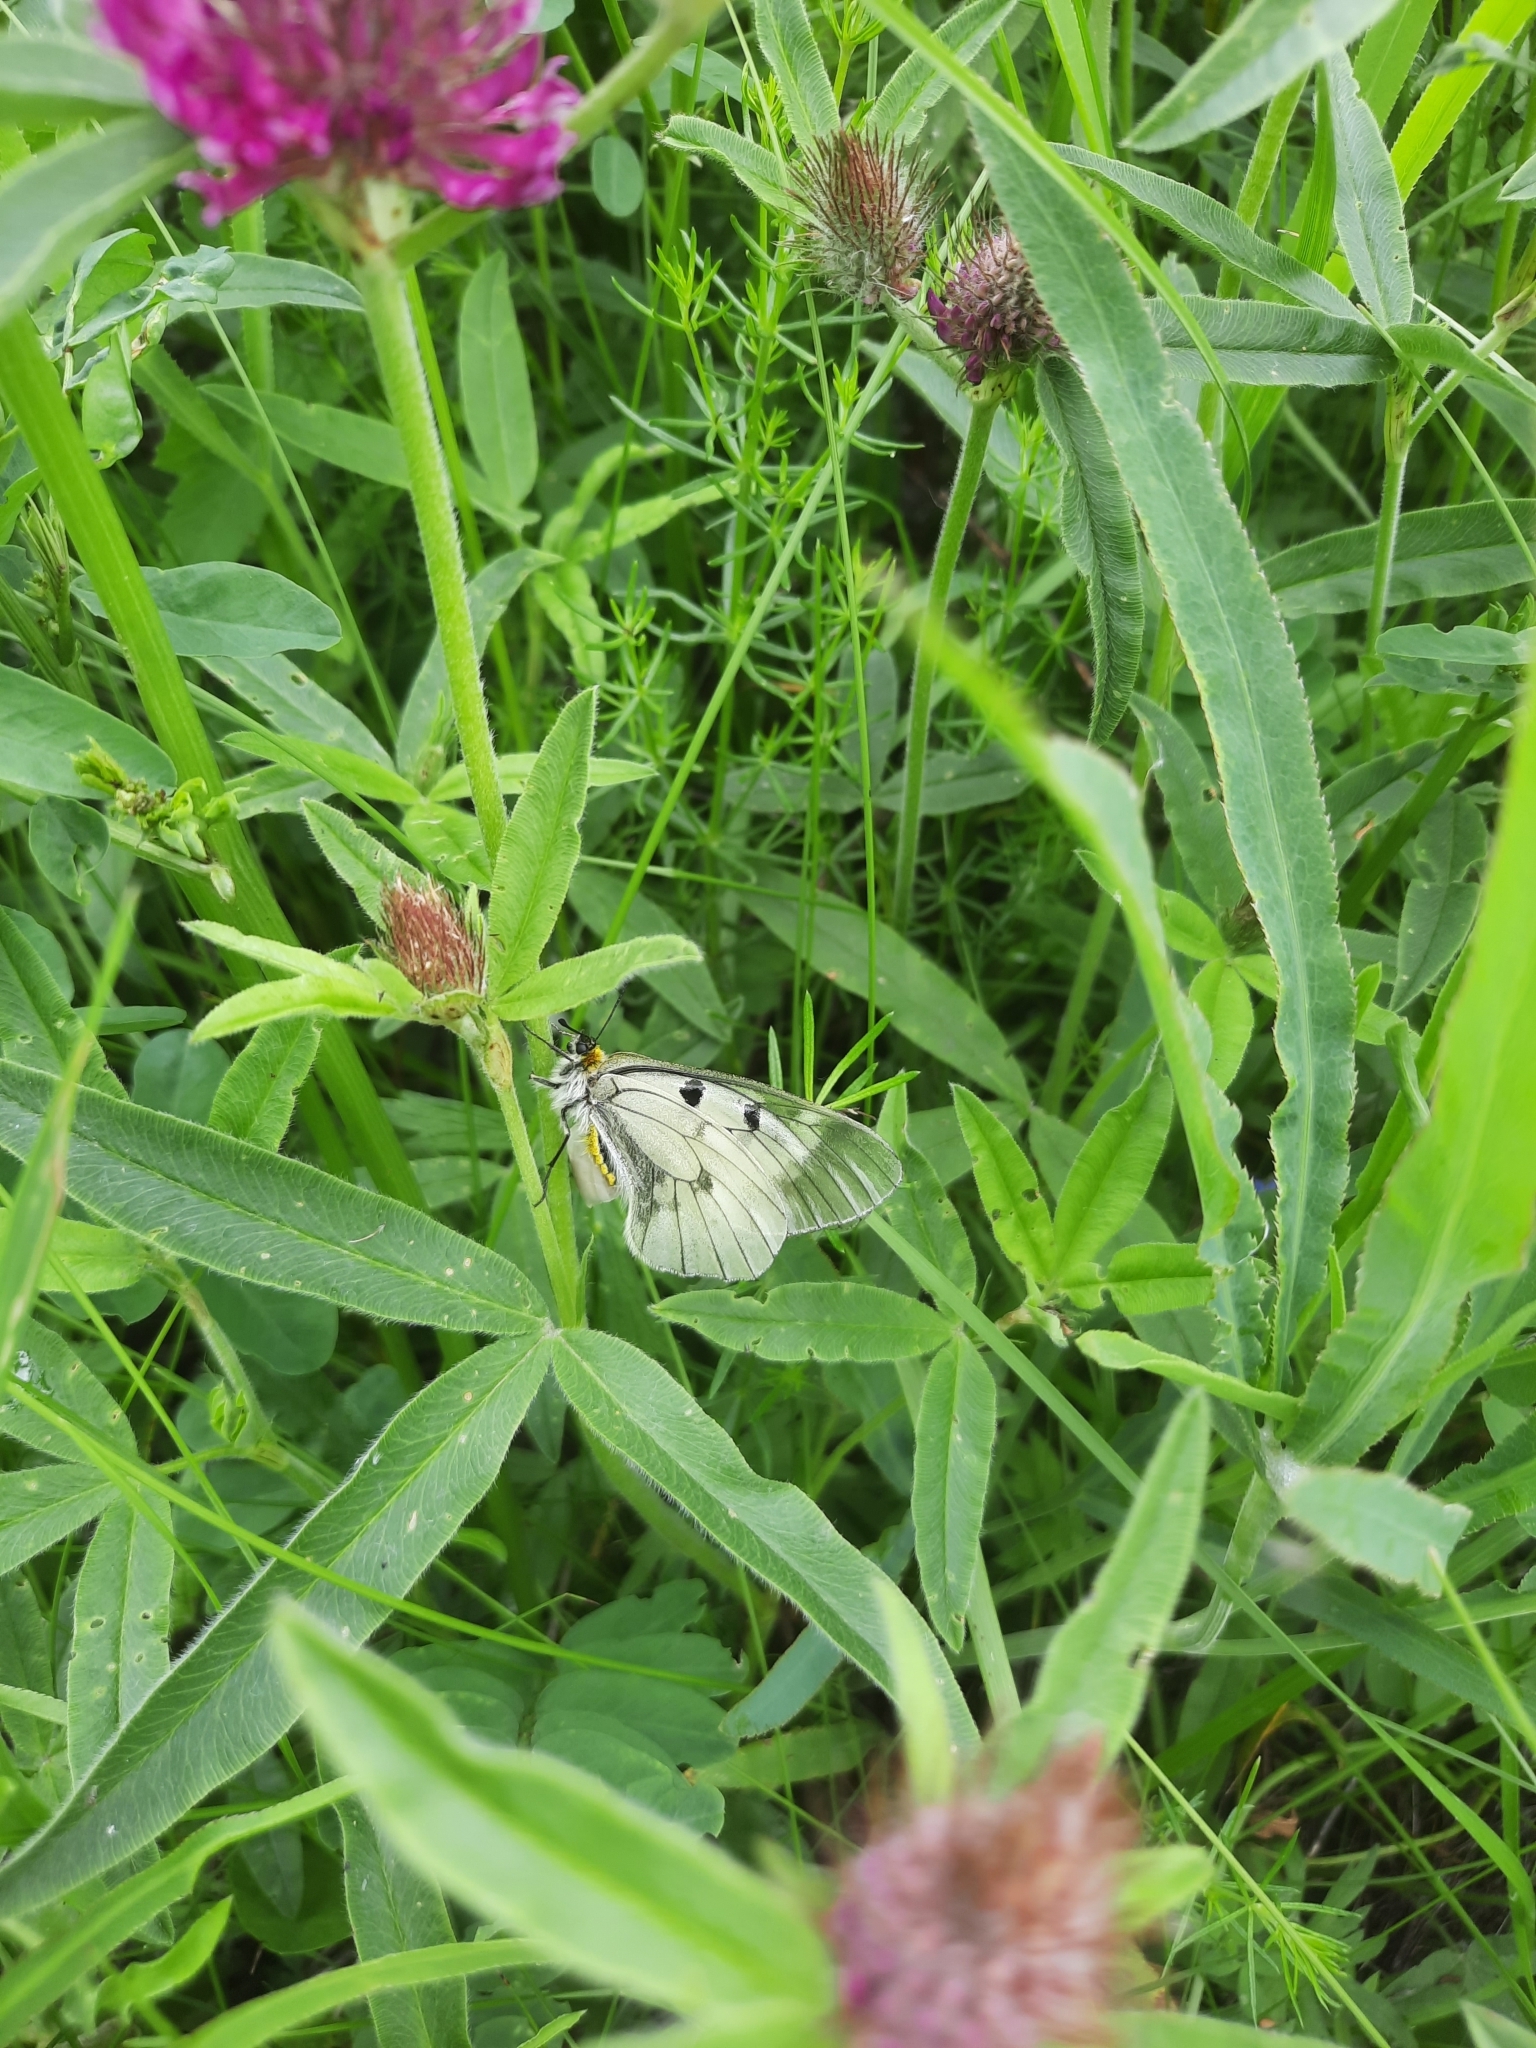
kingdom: Animalia
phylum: Arthropoda
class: Insecta
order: Lepidoptera
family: Papilionidae
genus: Parnassius
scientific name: Parnassius mnemosyne
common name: Clouded apollo
